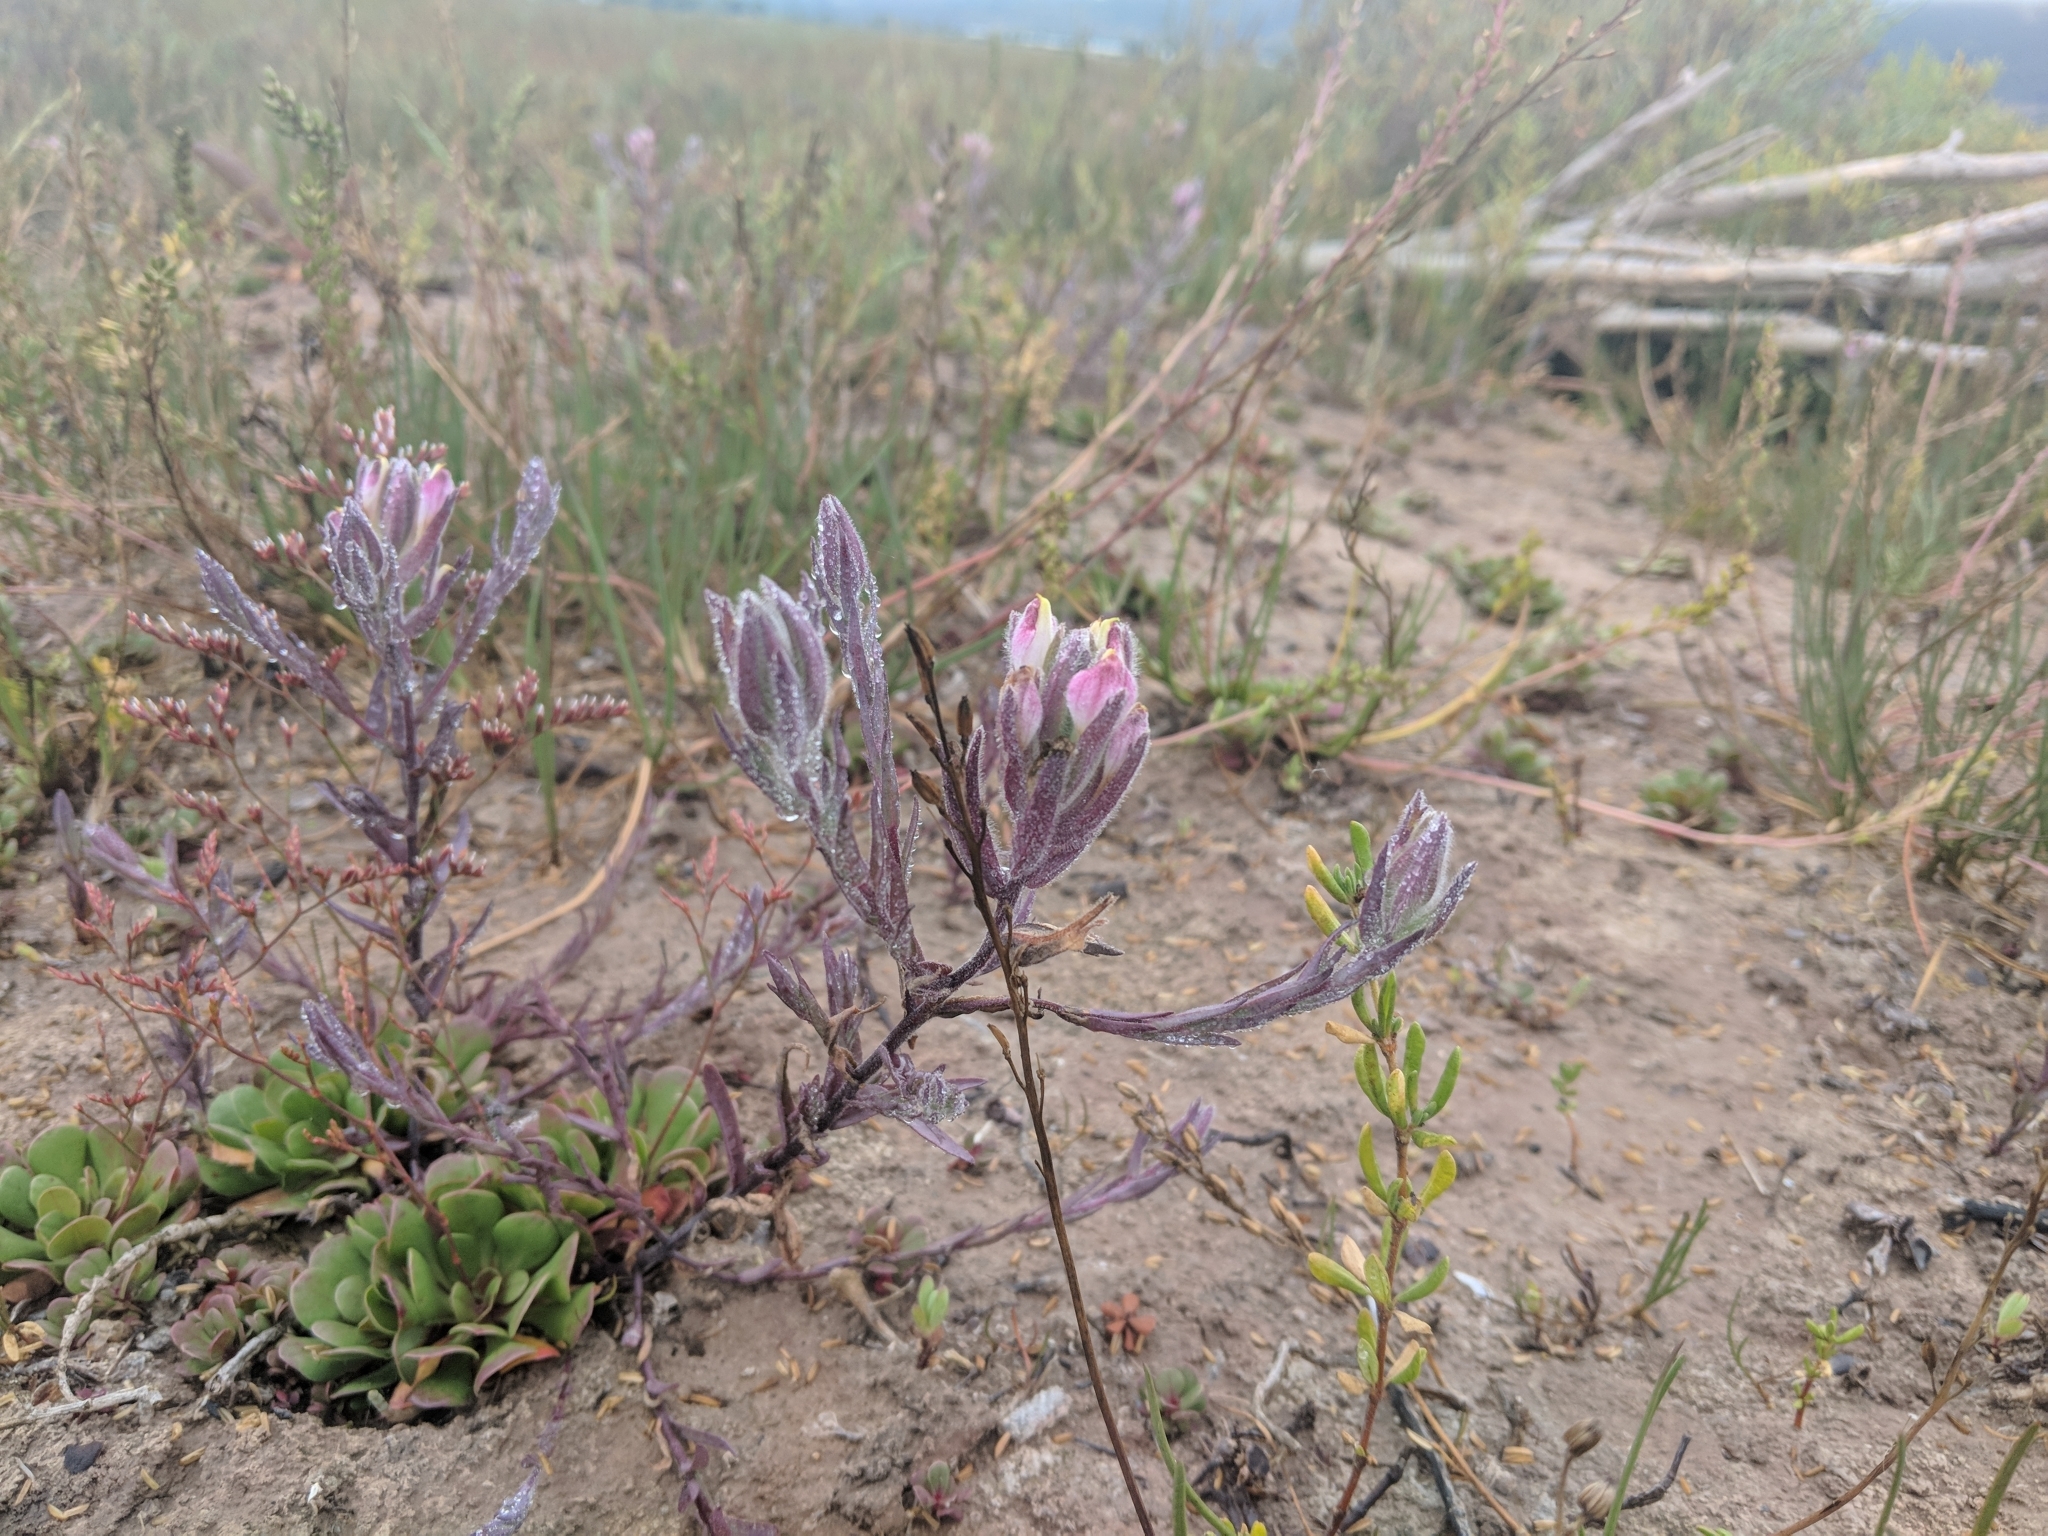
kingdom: Plantae
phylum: Tracheophyta
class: Magnoliopsida
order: Lamiales
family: Orobanchaceae
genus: Chloropyron
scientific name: Chloropyron maritimum
